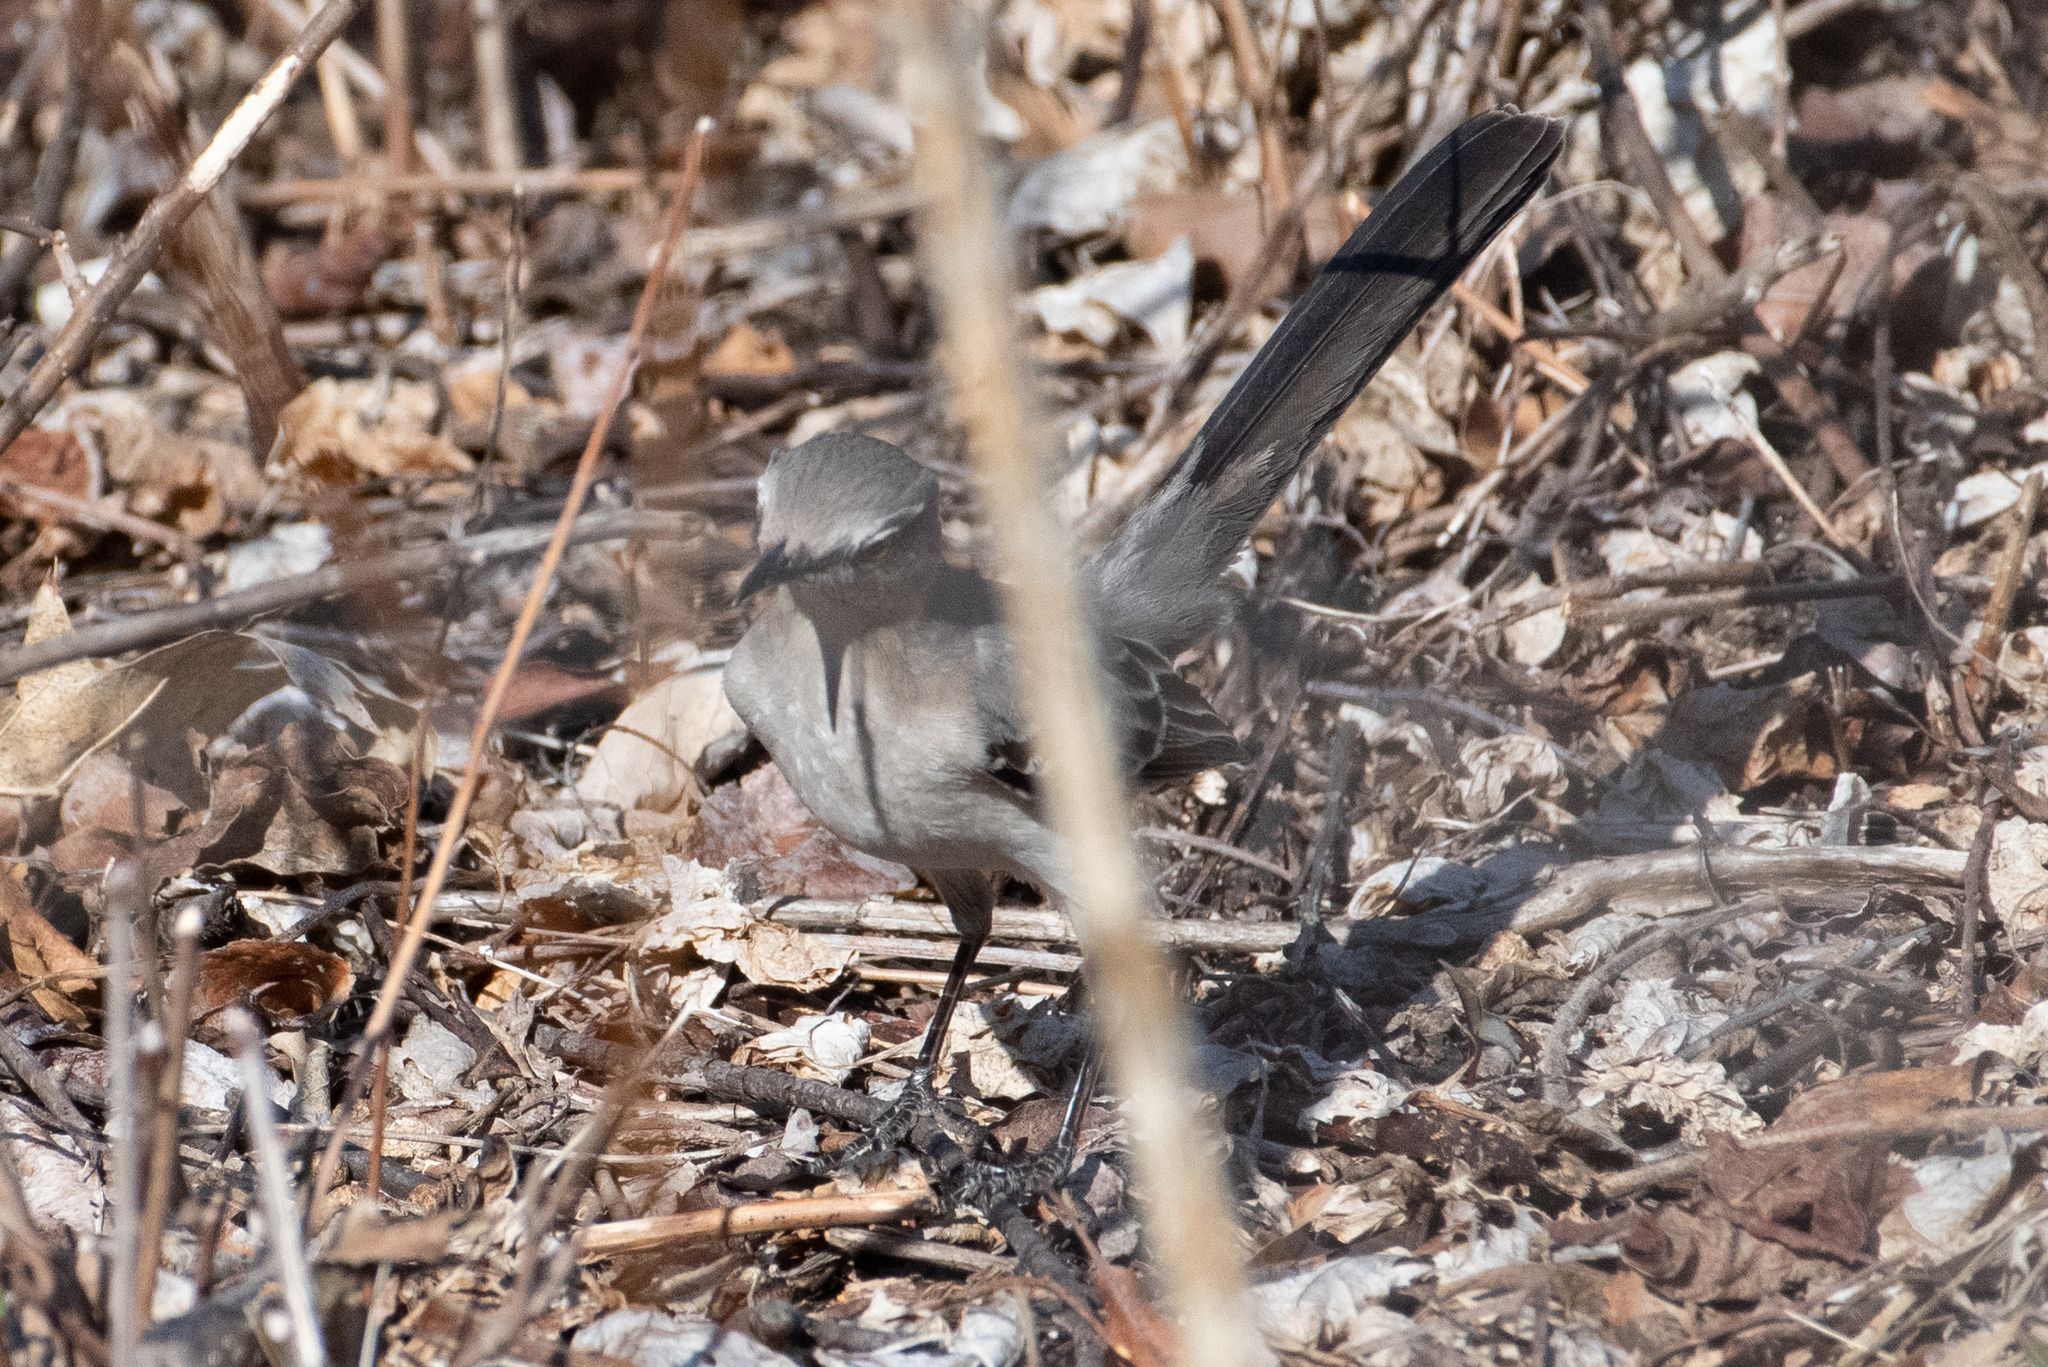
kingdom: Animalia
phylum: Chordata
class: Aves
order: Passeriformes
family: Mimidae
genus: Mimus
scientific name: Mimus polyglottos
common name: Northern mockingbird
